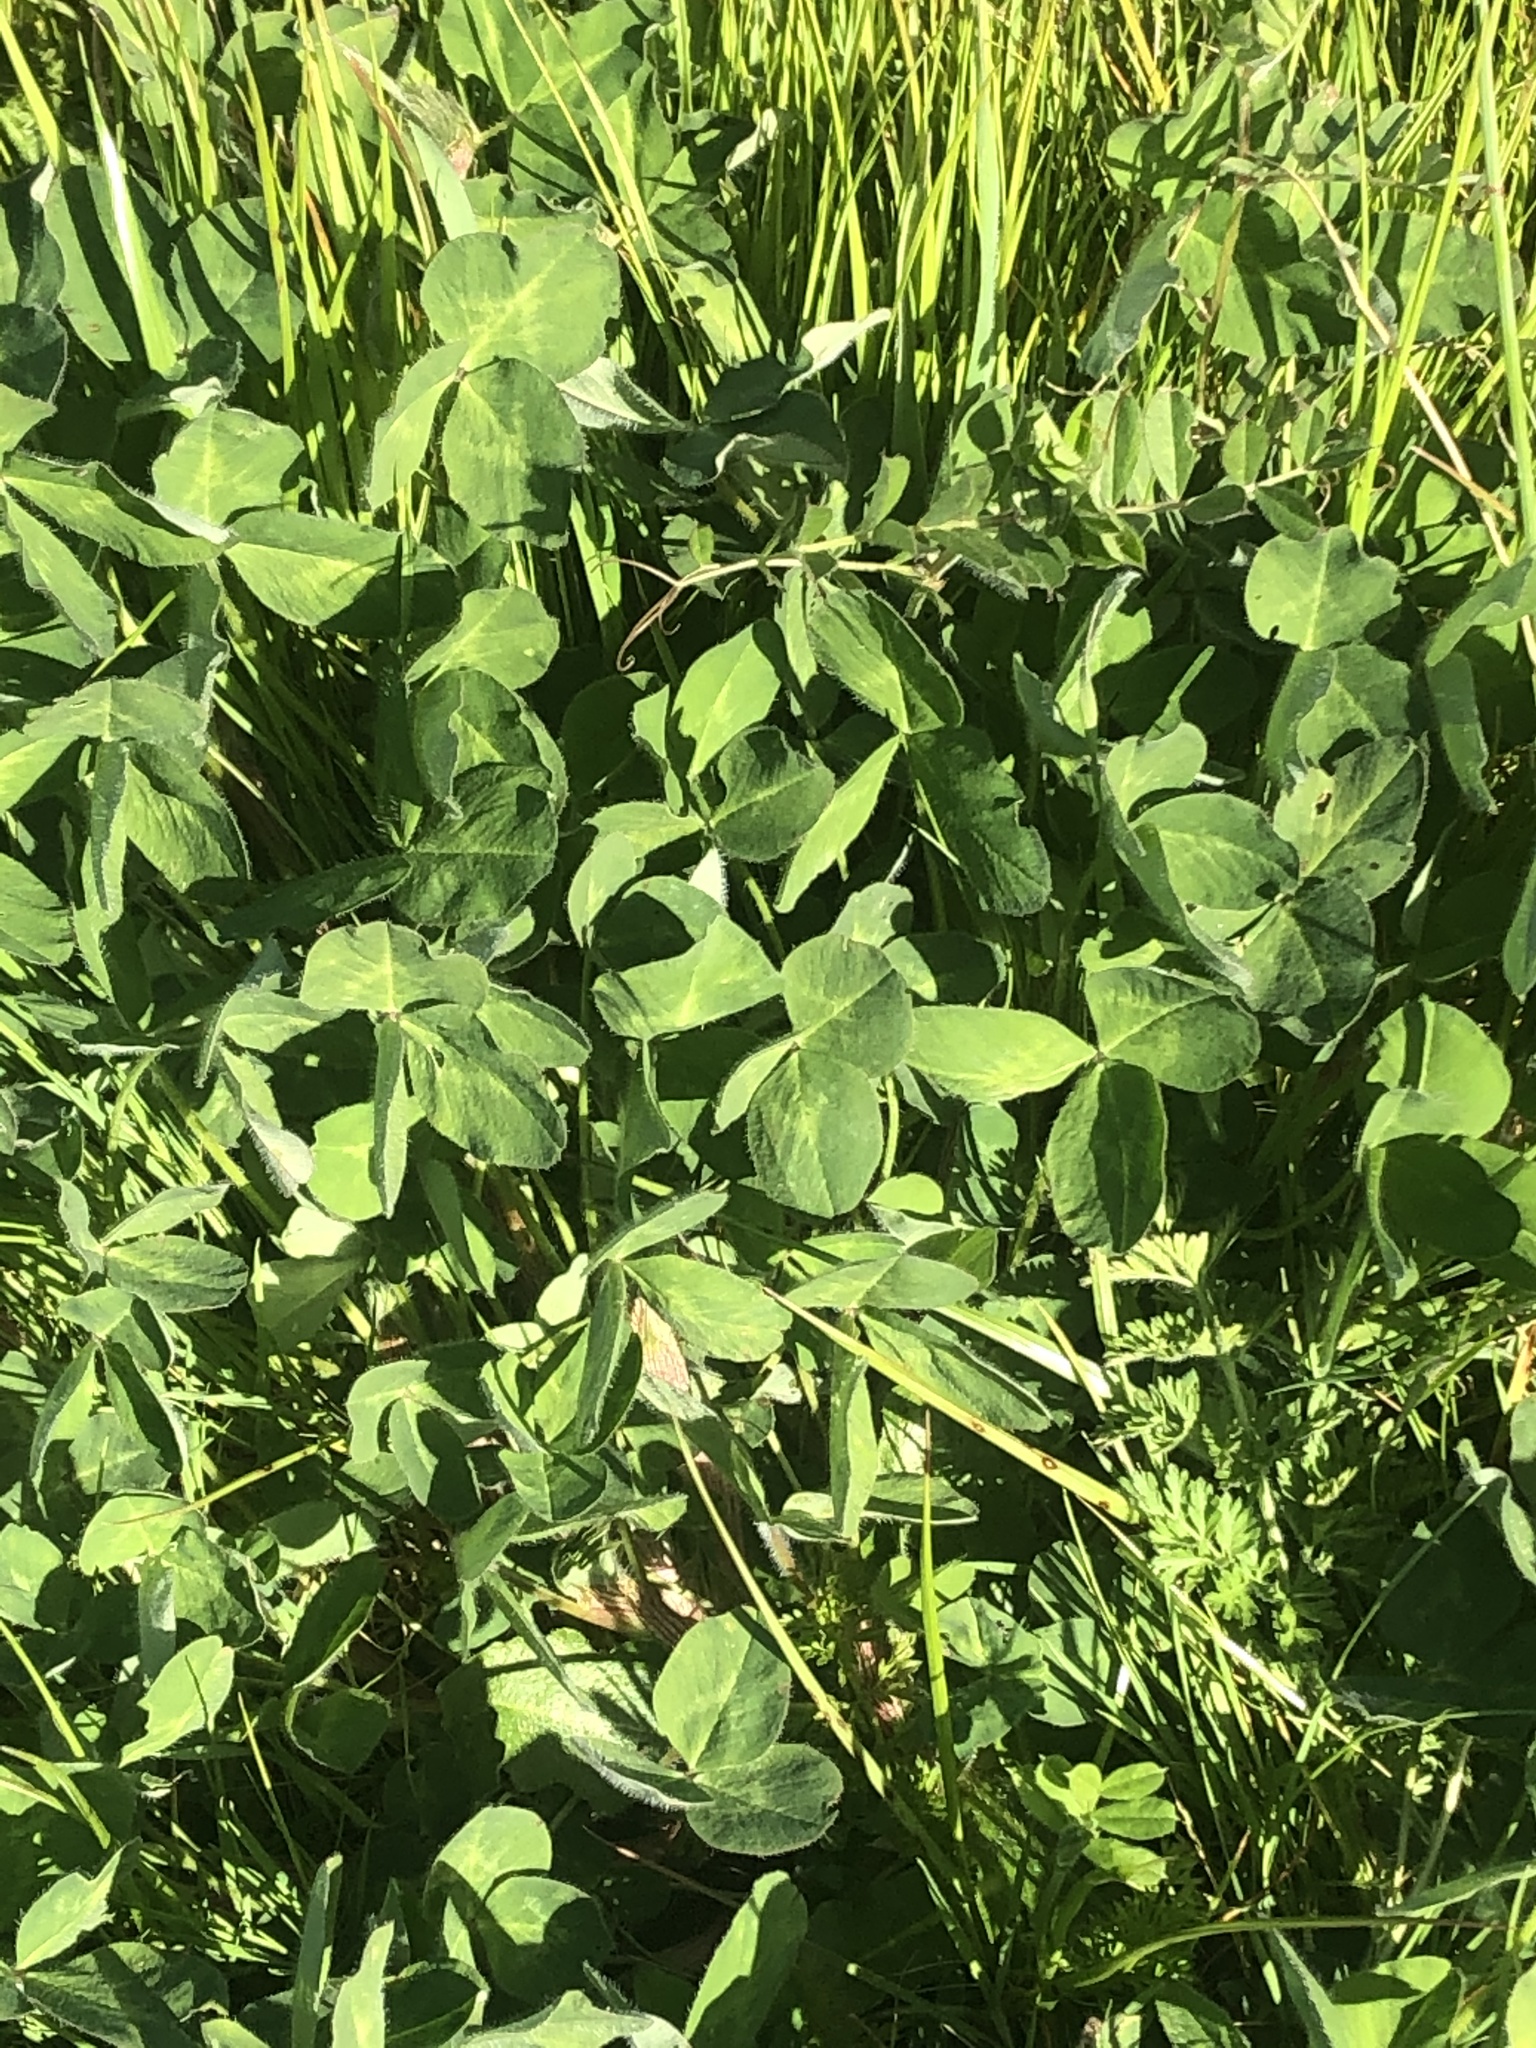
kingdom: Plantae
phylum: Tracheophyta
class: Magnoliopsida
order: Fabales
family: Fabaceae
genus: Trifolium
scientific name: Trifolium pratense
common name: Red clover
